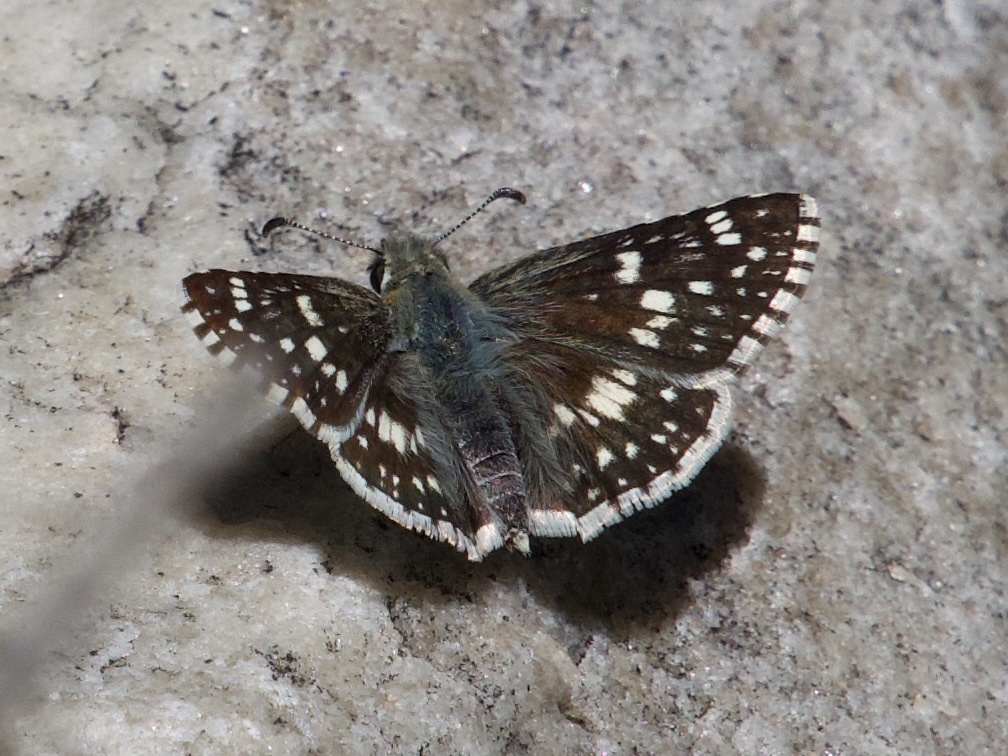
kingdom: Animalia
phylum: Arthropoda
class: Insecta
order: Lepidoptera
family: Hesperiidae
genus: Burnsius
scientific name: Burnsius communis
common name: Common checkered-skipper
